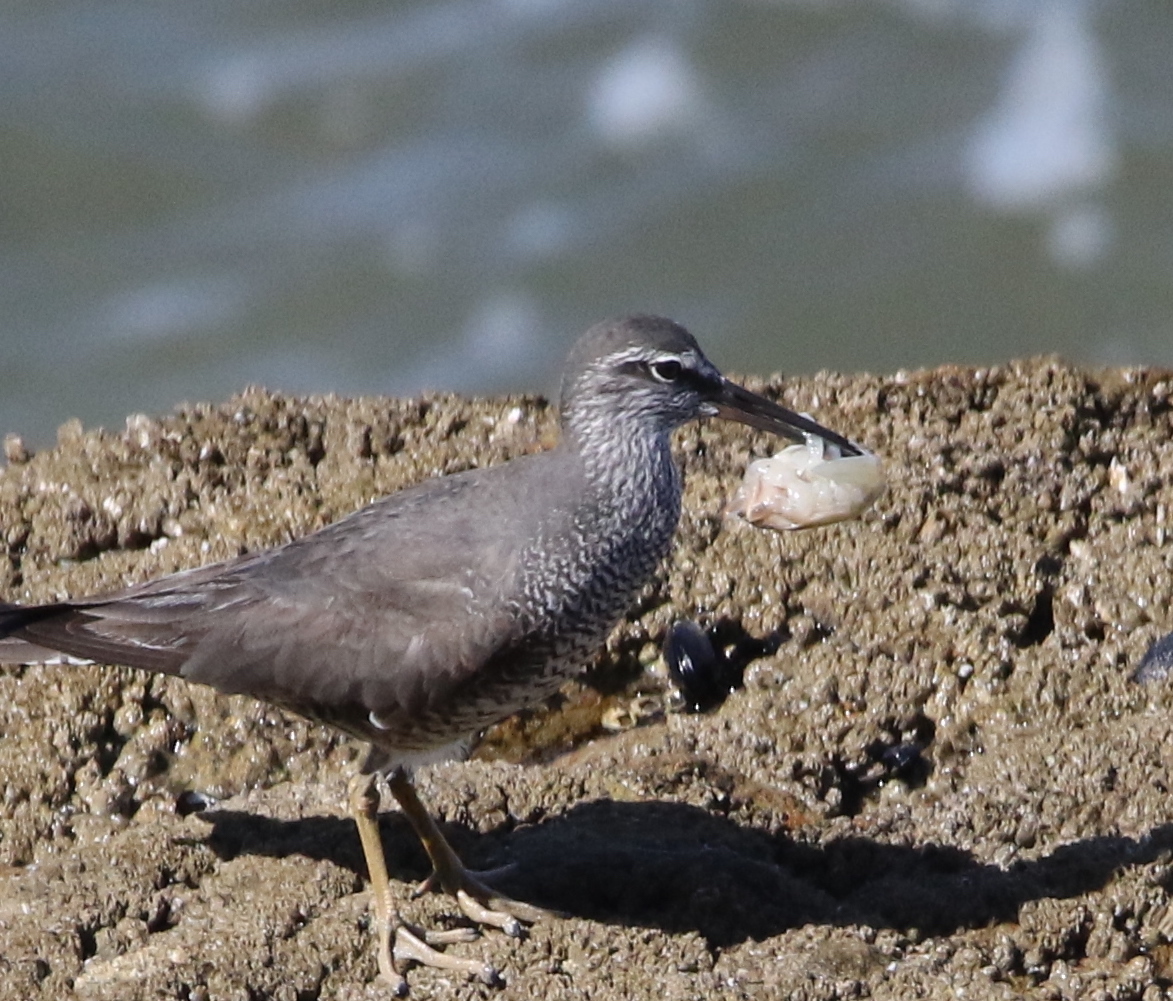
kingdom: Animalia
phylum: Arthropoda
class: Malacostraca
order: Decapoda
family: Hippidae
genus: Emerita
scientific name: Emerita analoga
